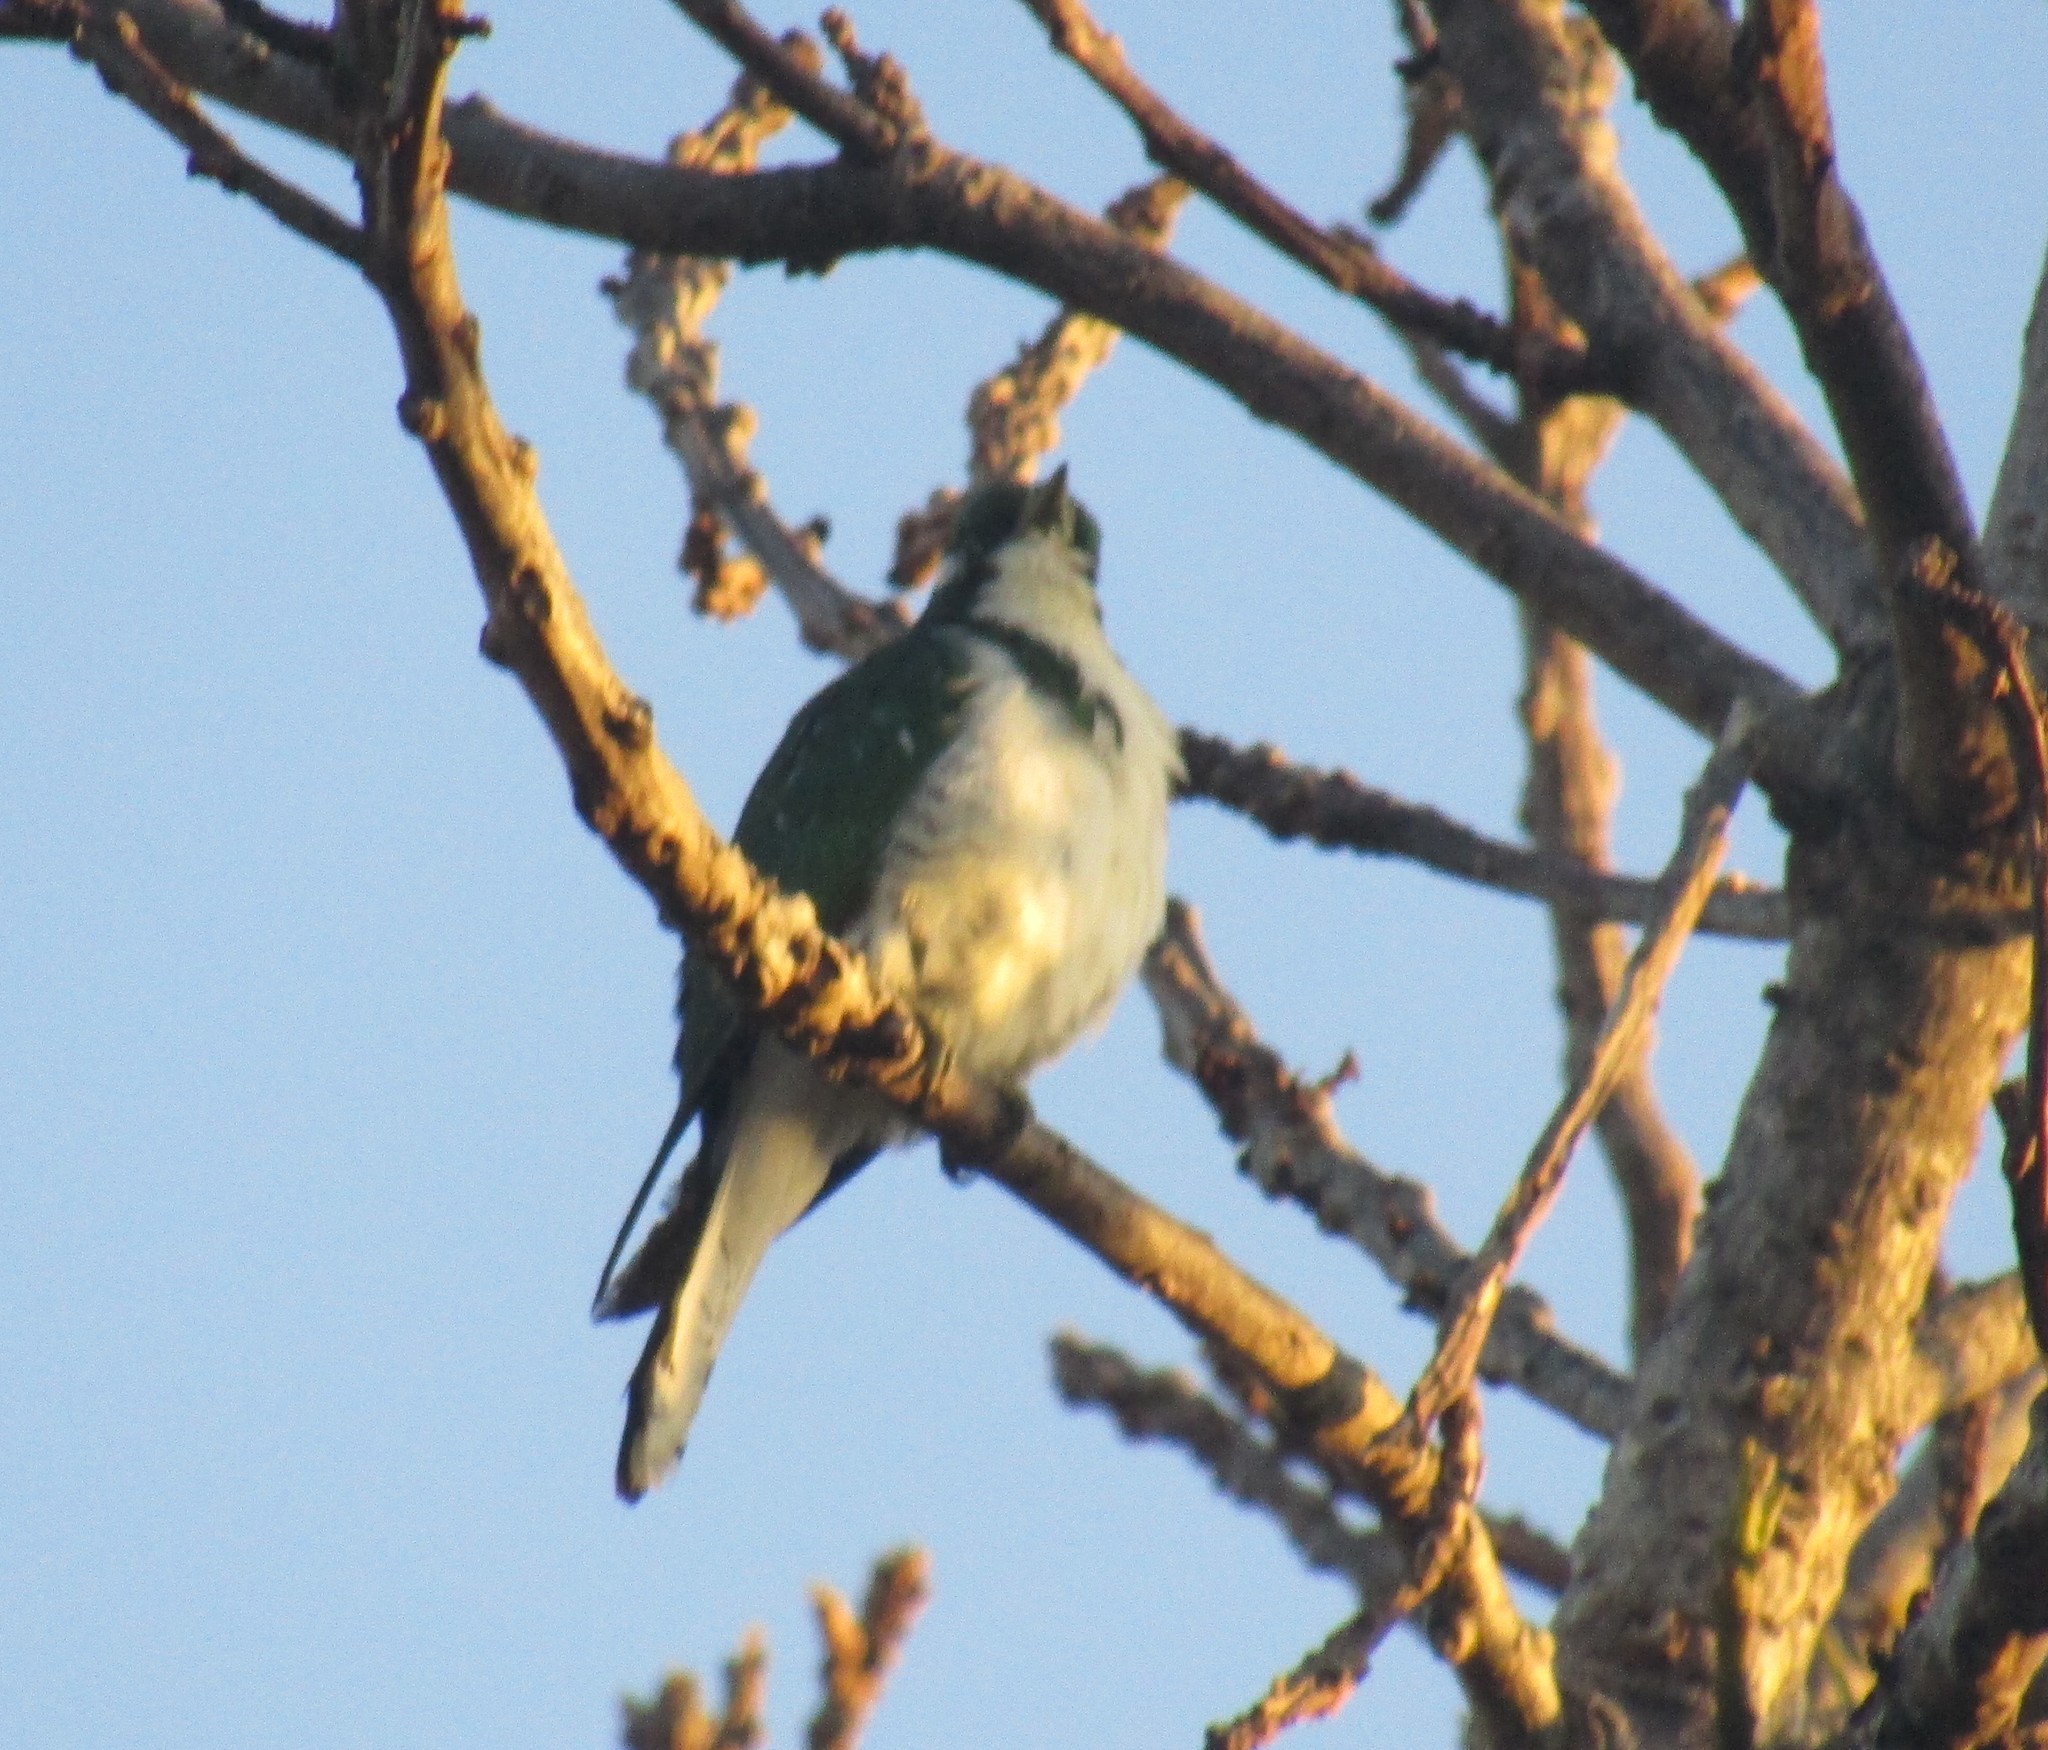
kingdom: Animalia
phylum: Chordata
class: Aves
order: Cuculiformes
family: Cuculidae
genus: Chrysococcyx
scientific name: Chrysococcyx klaas
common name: Klaas's cuckoo
